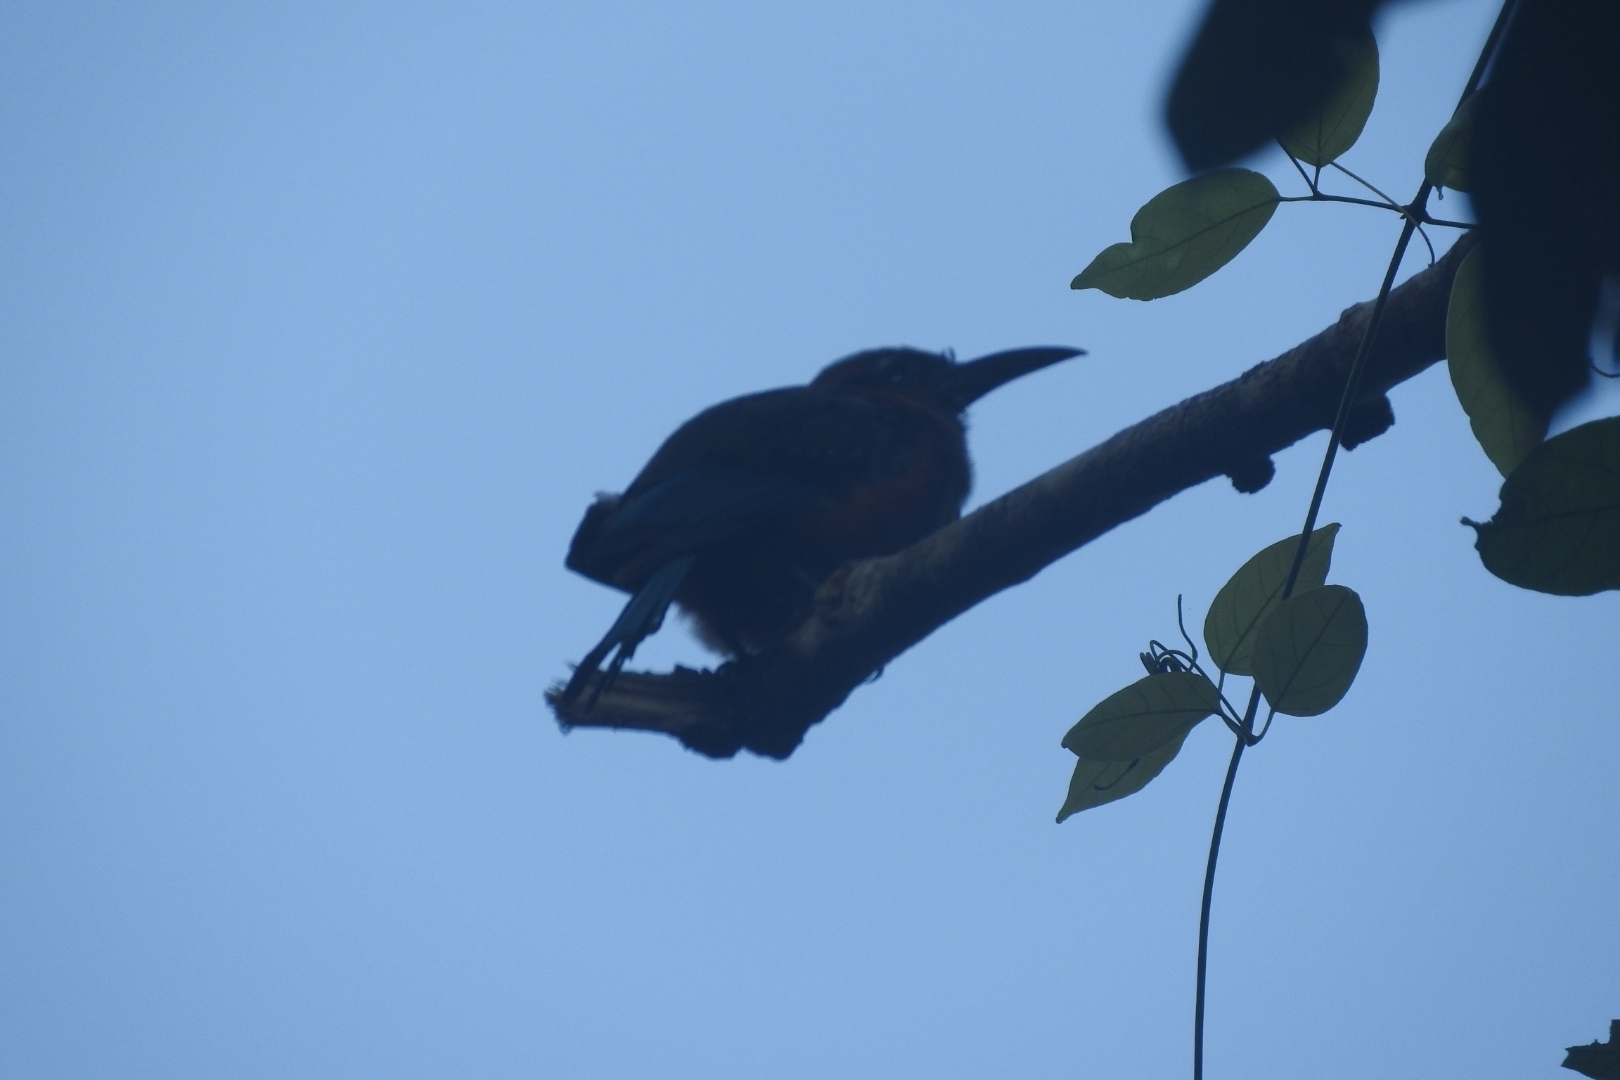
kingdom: Animalia
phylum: Chordata
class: Aves
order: Coraciiformes
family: Momotidae
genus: Eumomota
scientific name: Eumomota superciliosa
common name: Turquoise-browed motmot
